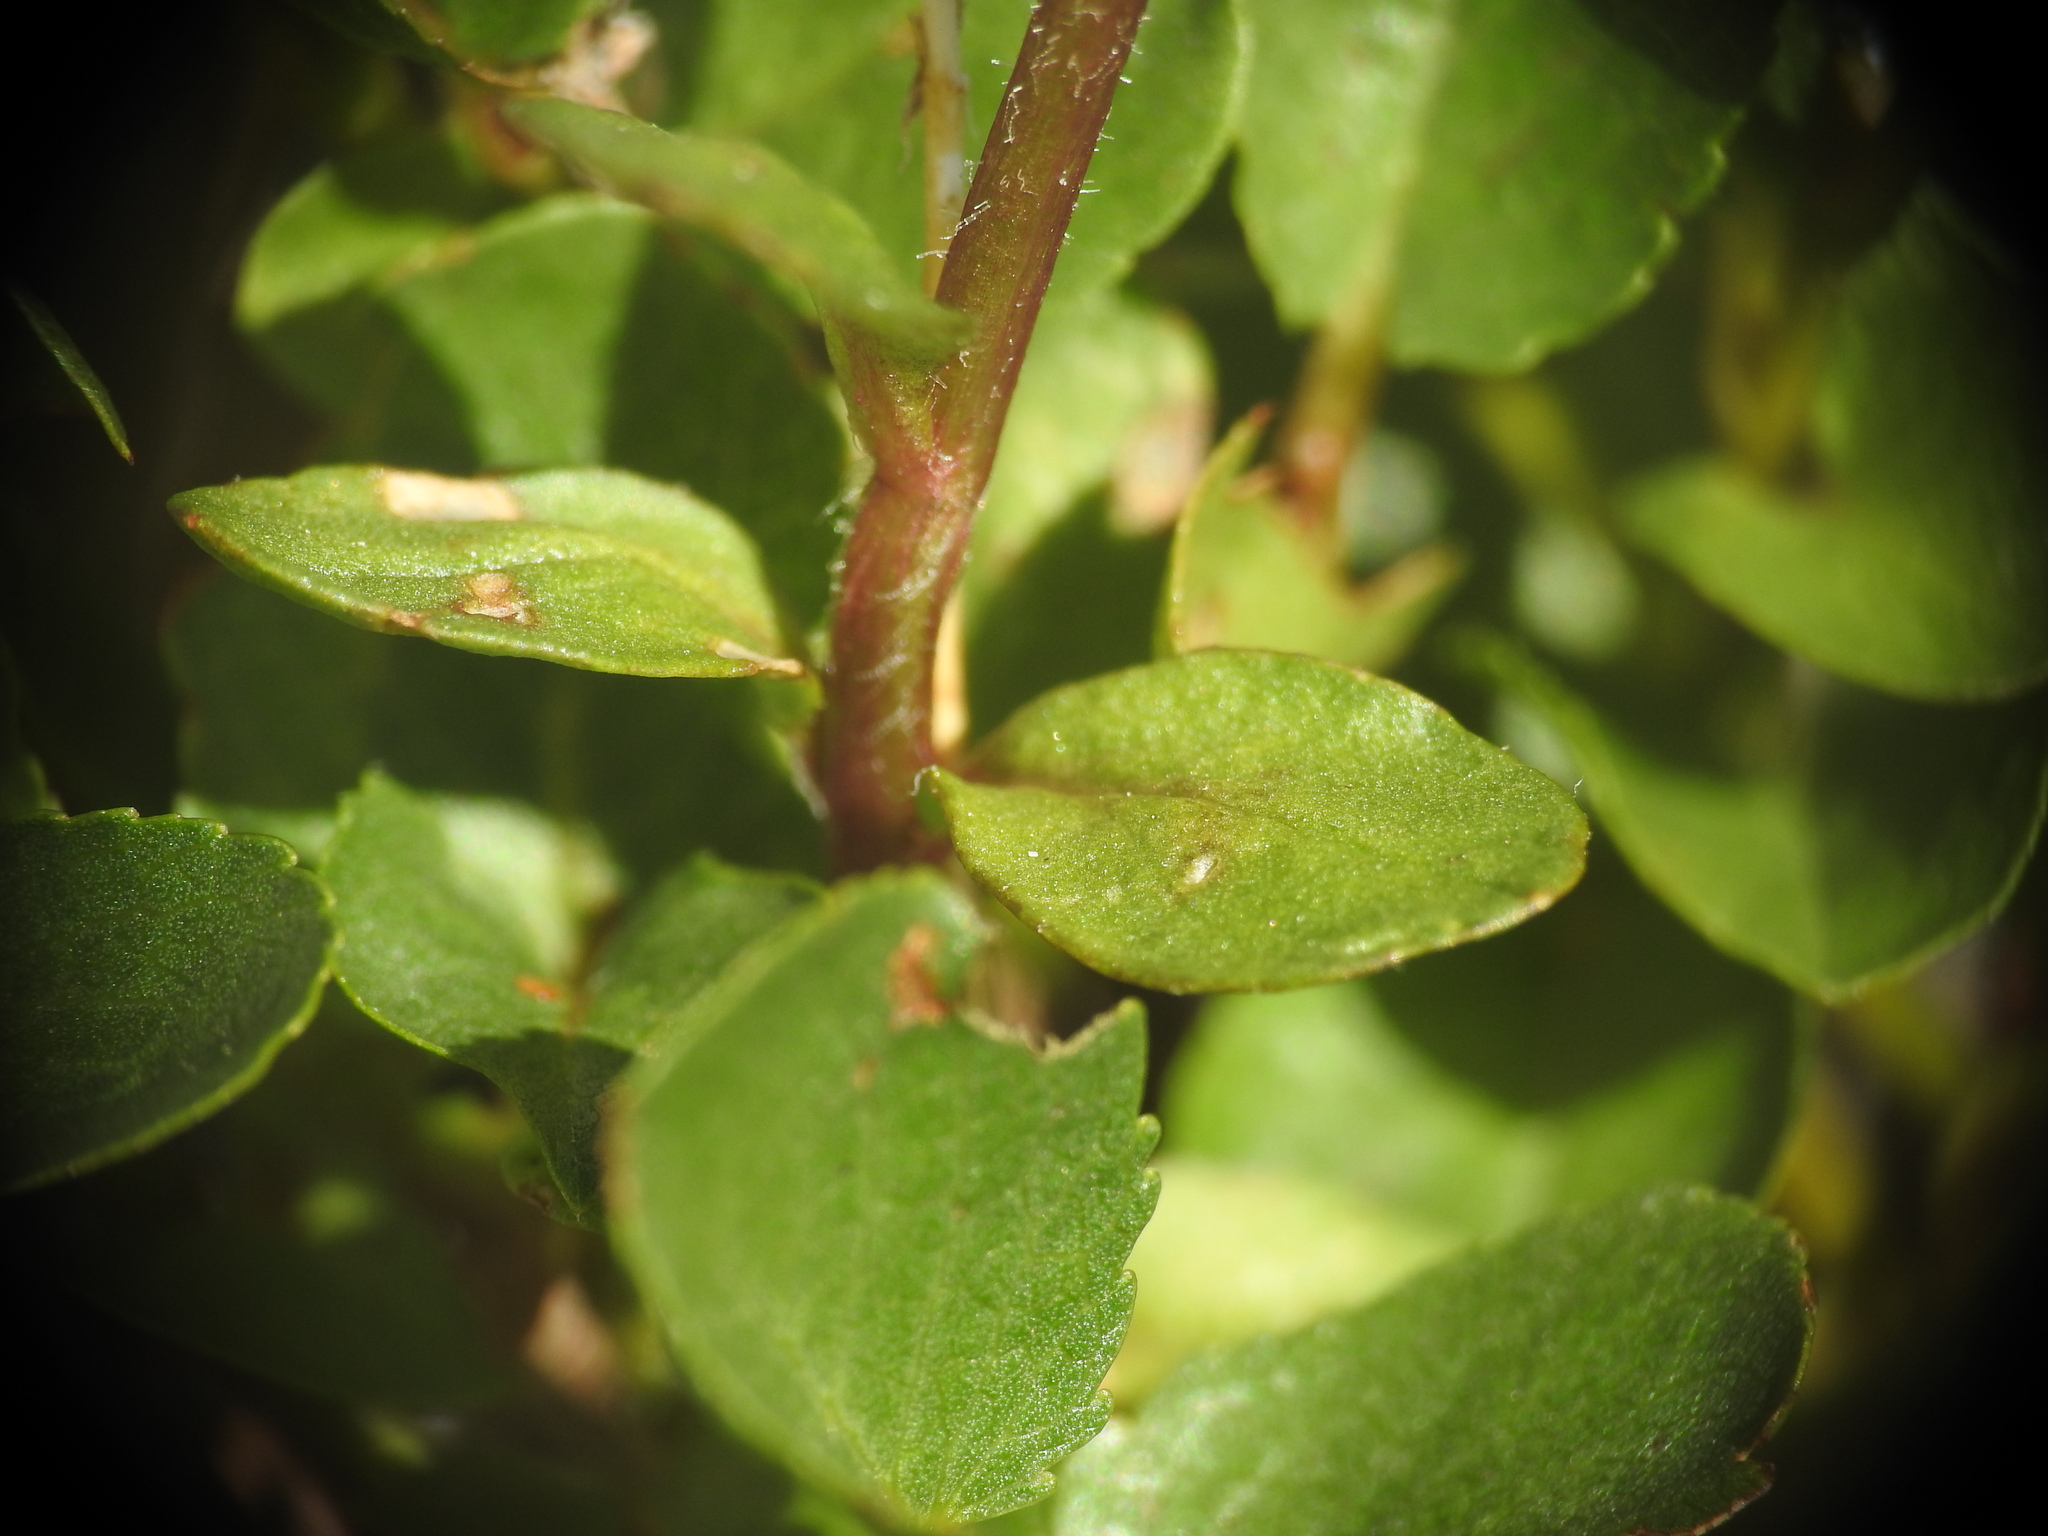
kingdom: Plantae
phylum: Tracheophyta
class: Magnoliopsida
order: Lamiales
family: Plantaginaceae
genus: Veronica
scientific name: Veronica alpina
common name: Alpine speedwell
